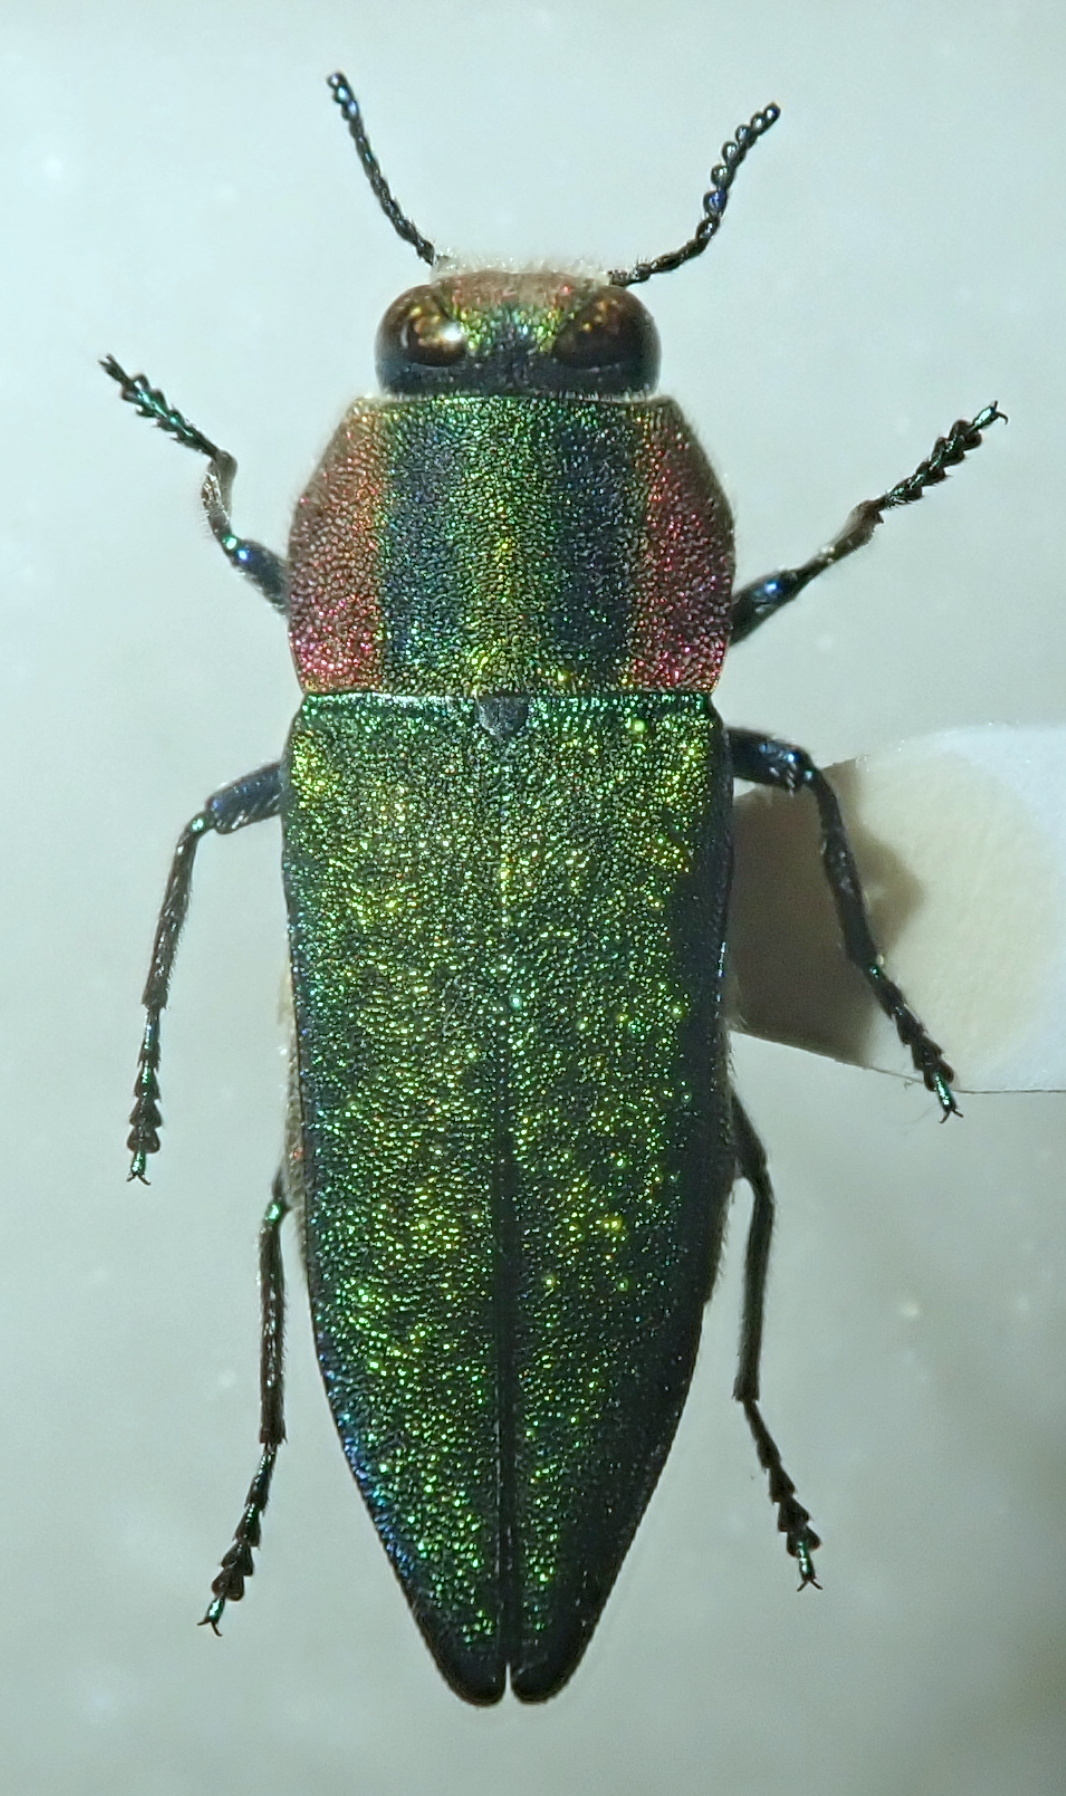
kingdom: Animalia
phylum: Arthropoda
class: Insecta
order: Coleoptera
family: Buprestidae
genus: Anthaxia
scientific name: Anthaxia hungarica
